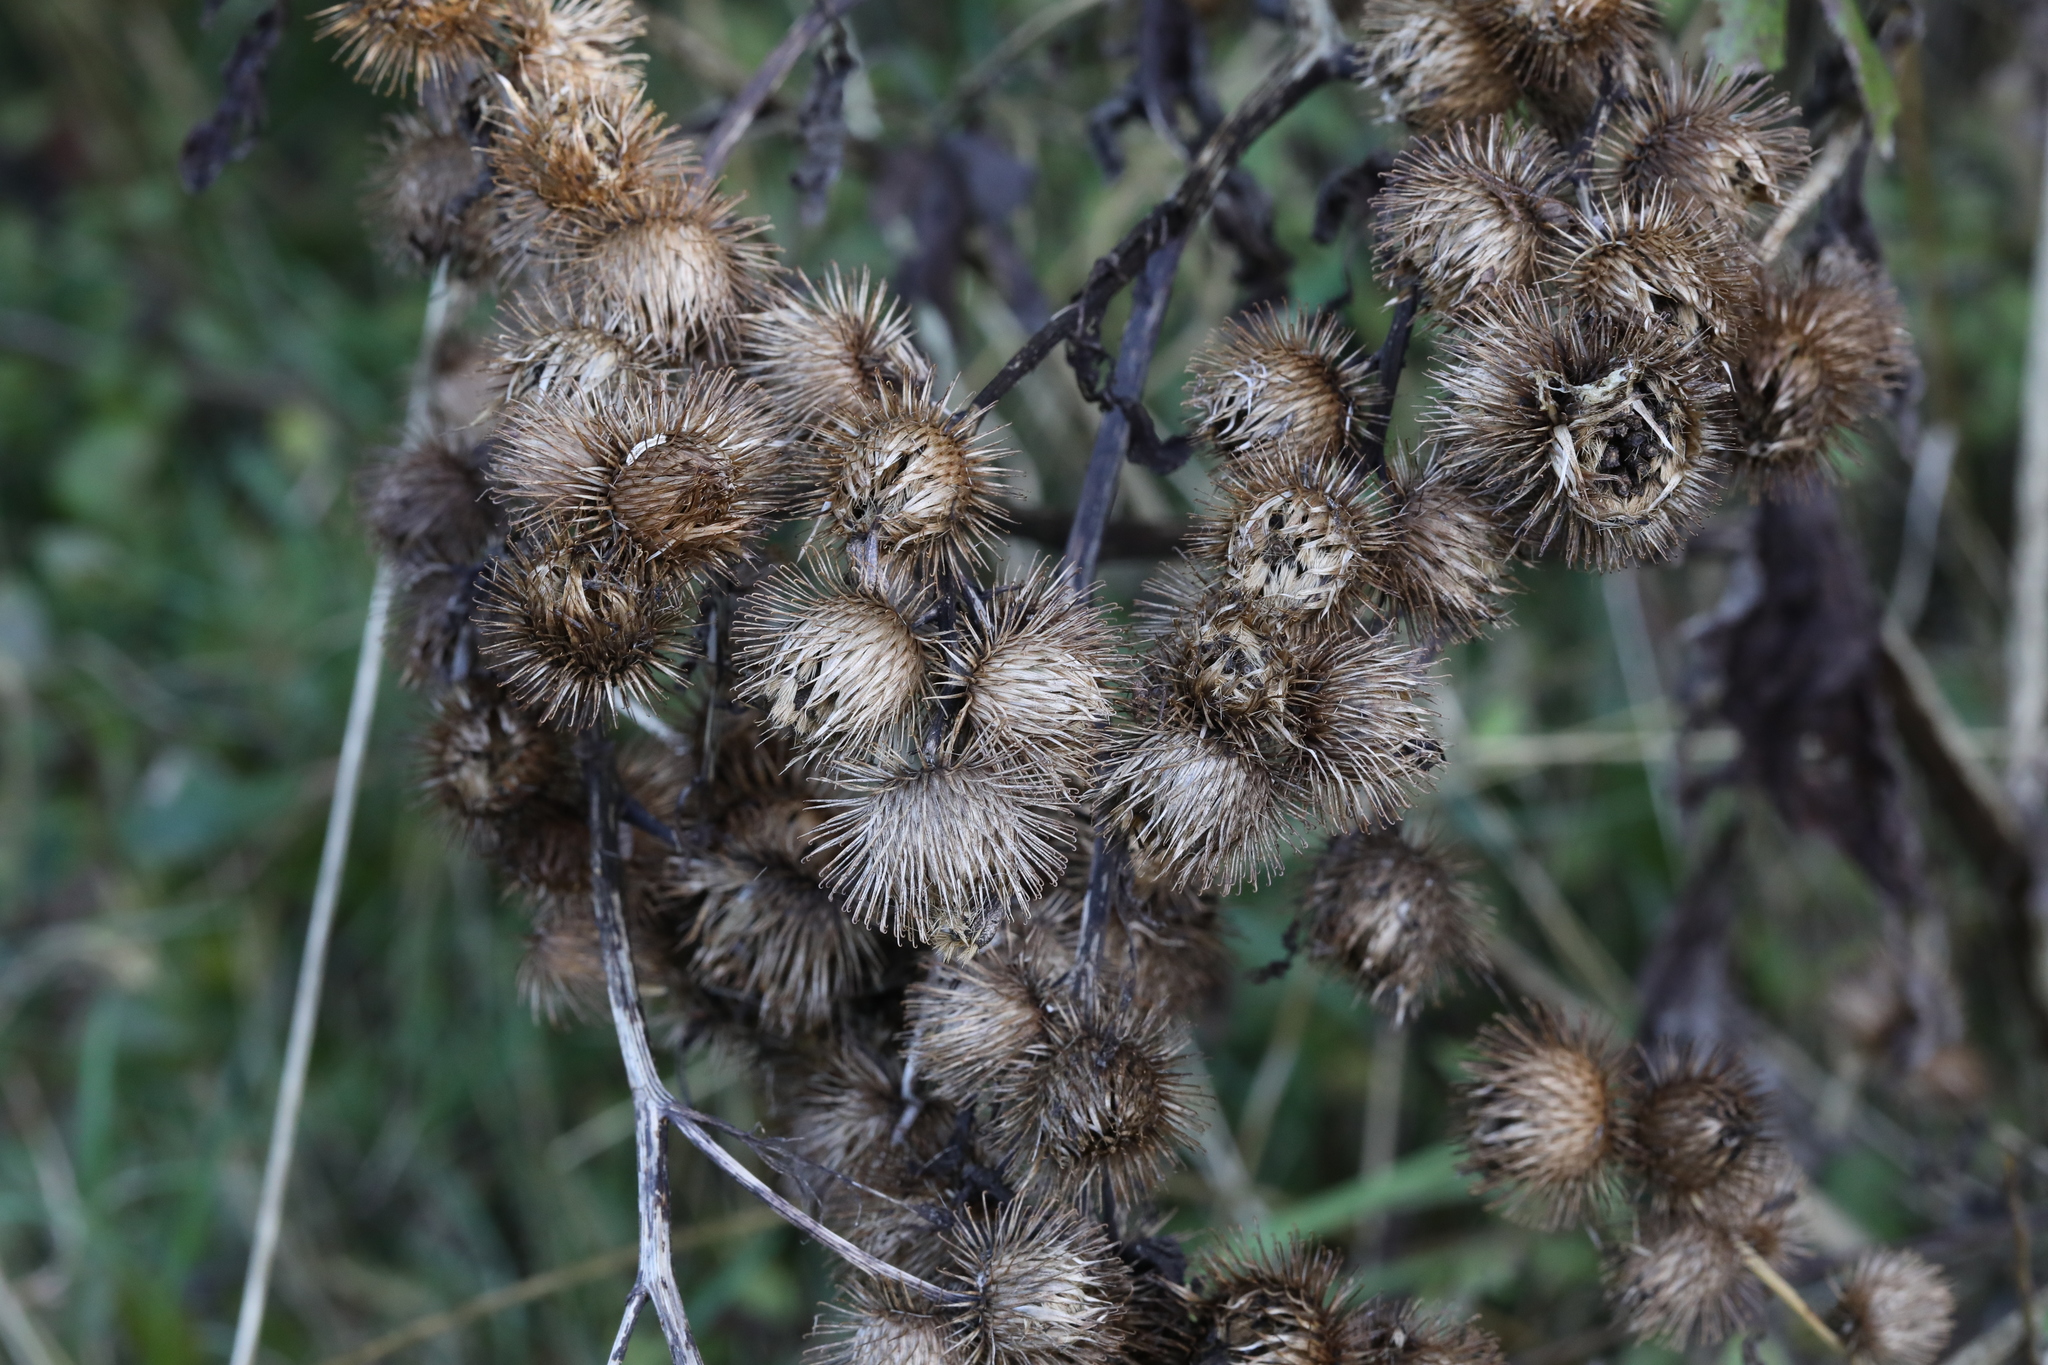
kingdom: Plantae
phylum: Tracheophyta
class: Magnoliopsida
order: Asterales
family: Asteraceae
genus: Arctium
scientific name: Arctium minus
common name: Lesser burdock
